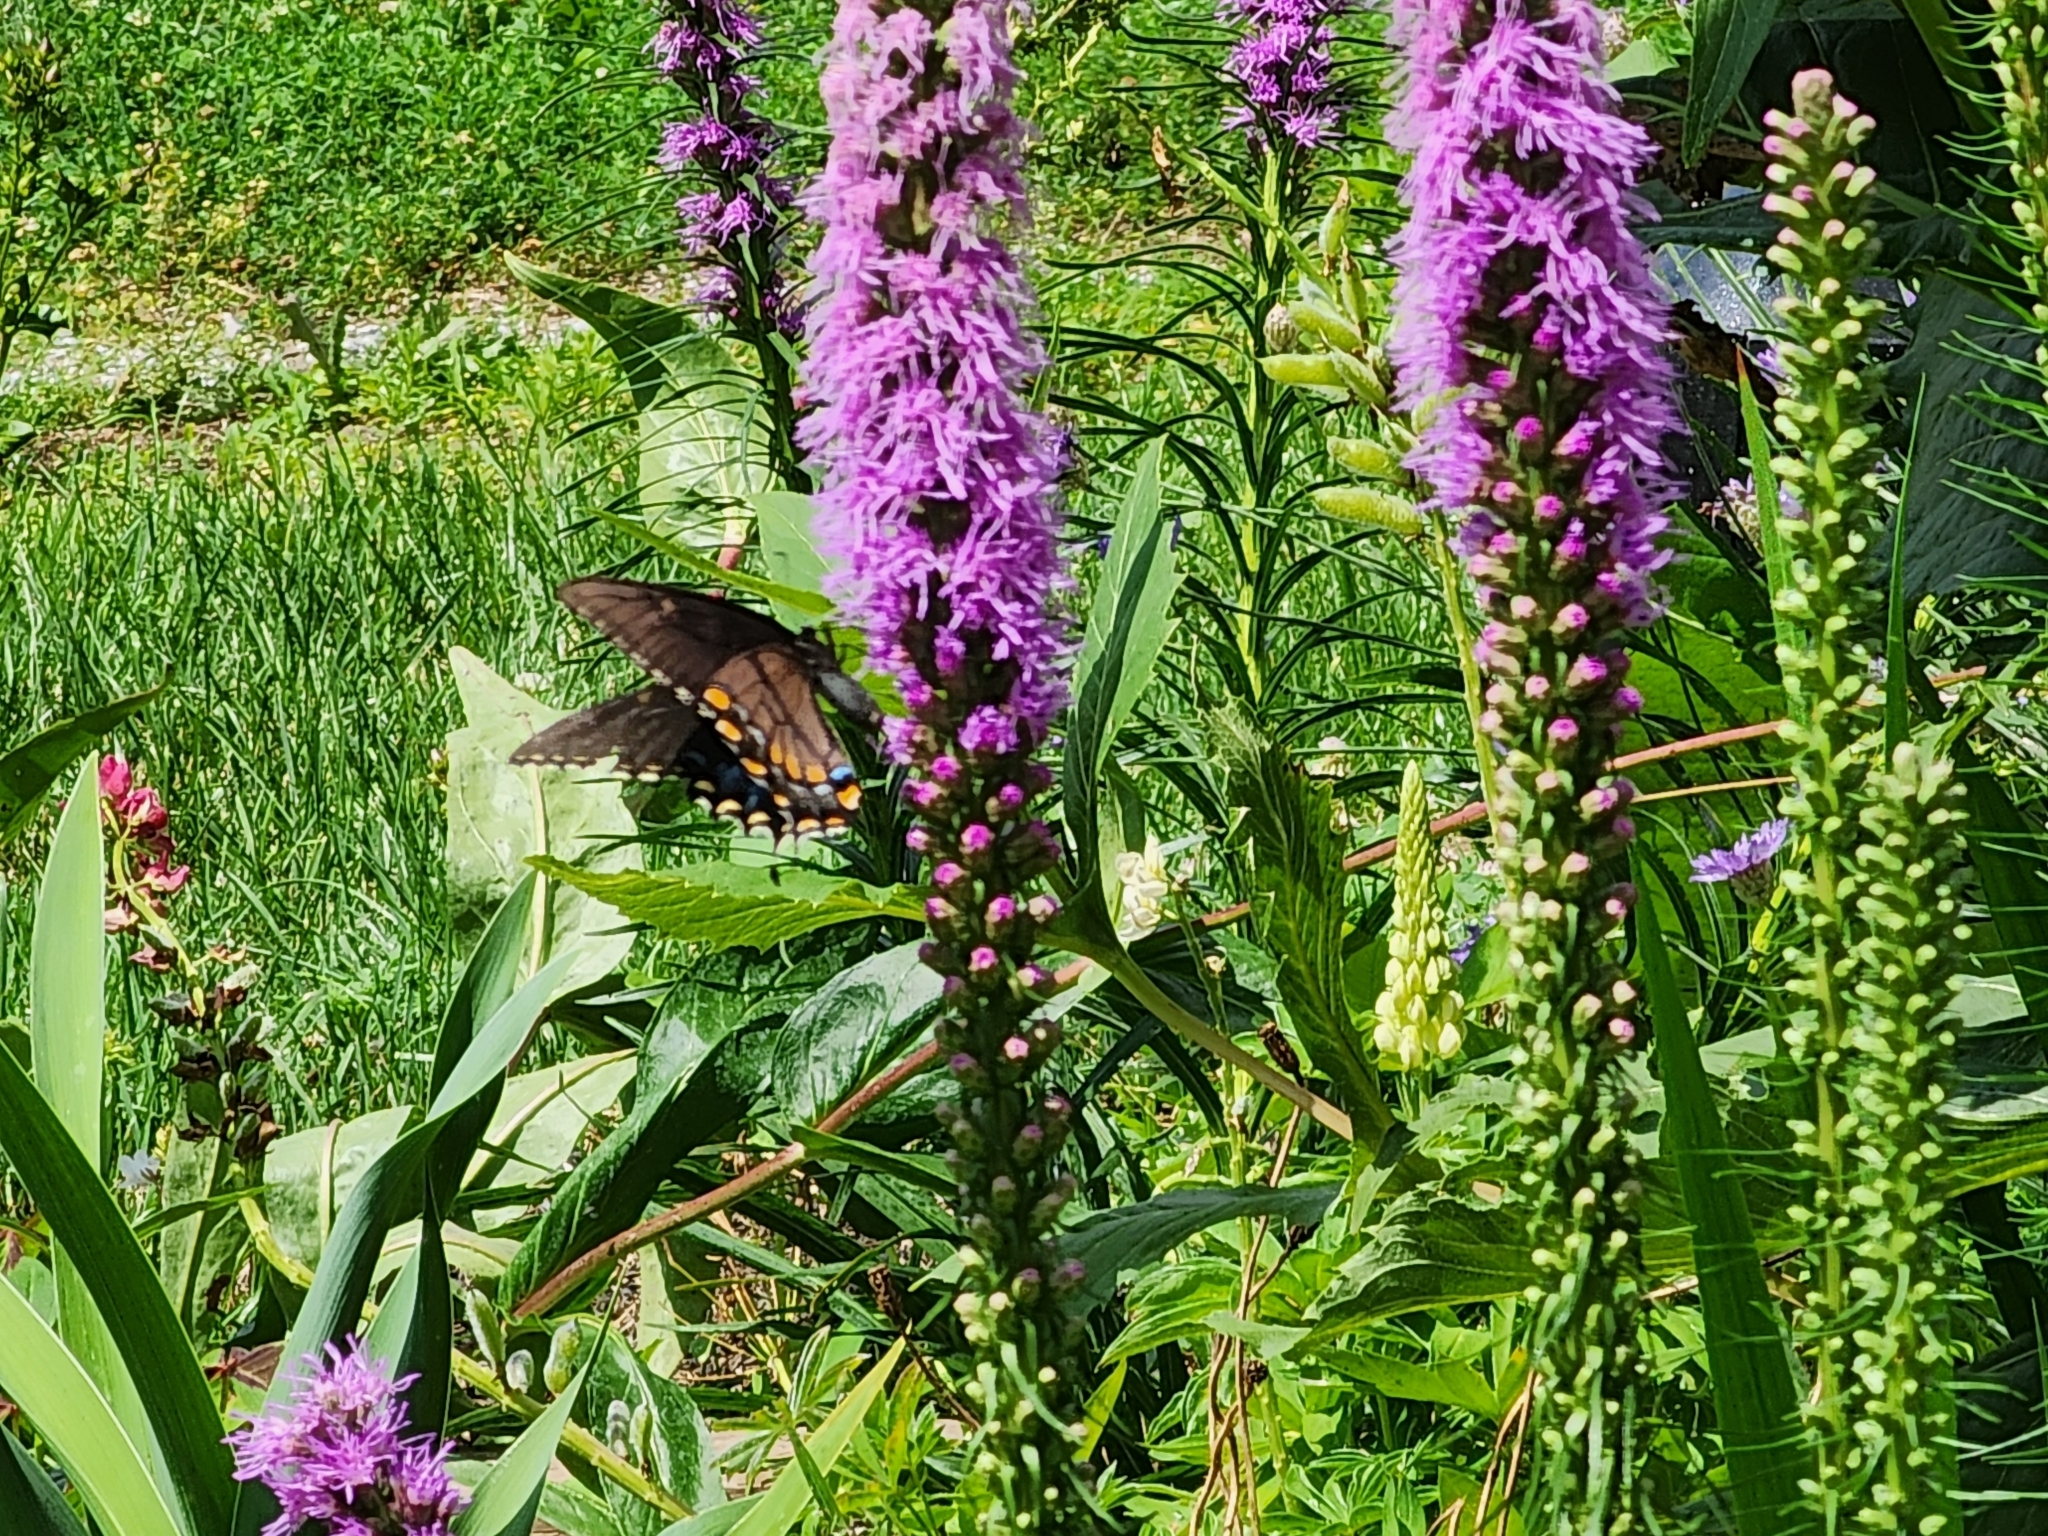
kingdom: Animalia
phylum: Arthropoda
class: Insecta
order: Lepidoptera
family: Papilionidae
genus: Papilio
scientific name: Papilio glaucus
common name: Tiger swallowtail
